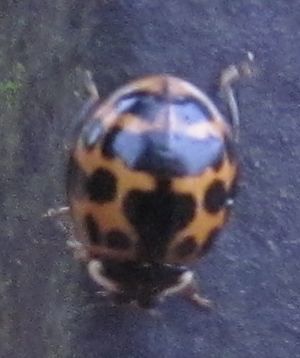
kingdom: Animalia
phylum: Arthropoda
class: Insecta
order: Coleoptera
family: Coccinellidae
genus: Harmonia
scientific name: Harmonia axyridis
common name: Harlequin ladybird
